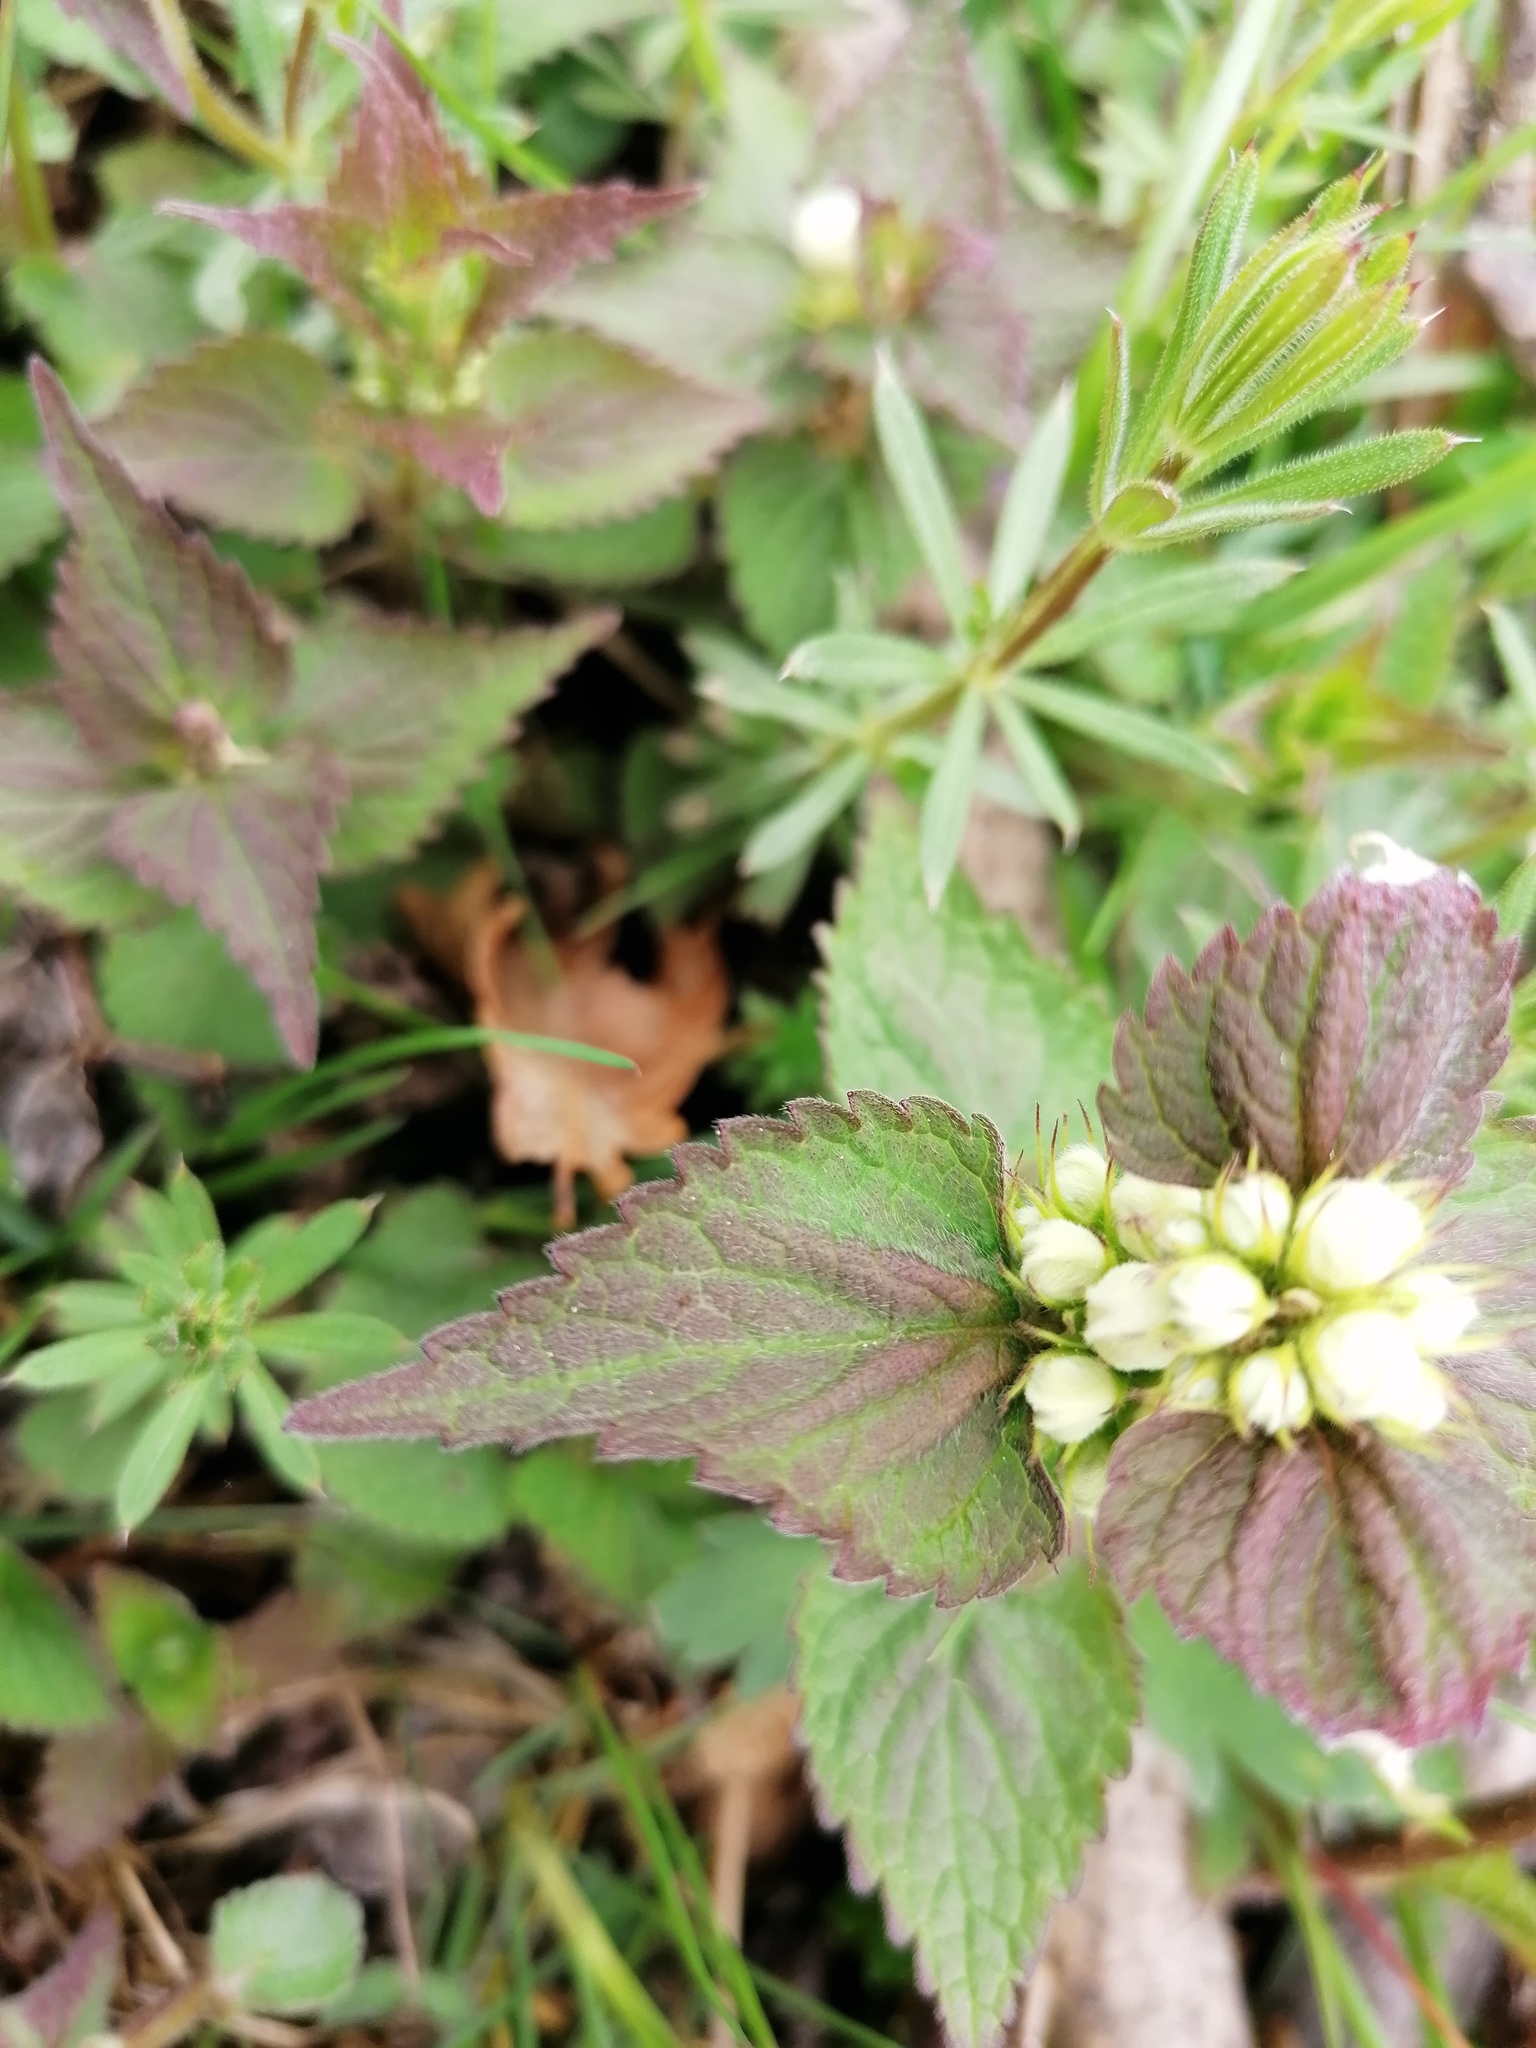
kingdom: Plantae
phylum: Tracheophyta
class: Magnoliopsida
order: Lamiales
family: Lamiaceae
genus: Lamium
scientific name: Lamium album
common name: White dead-nettle
